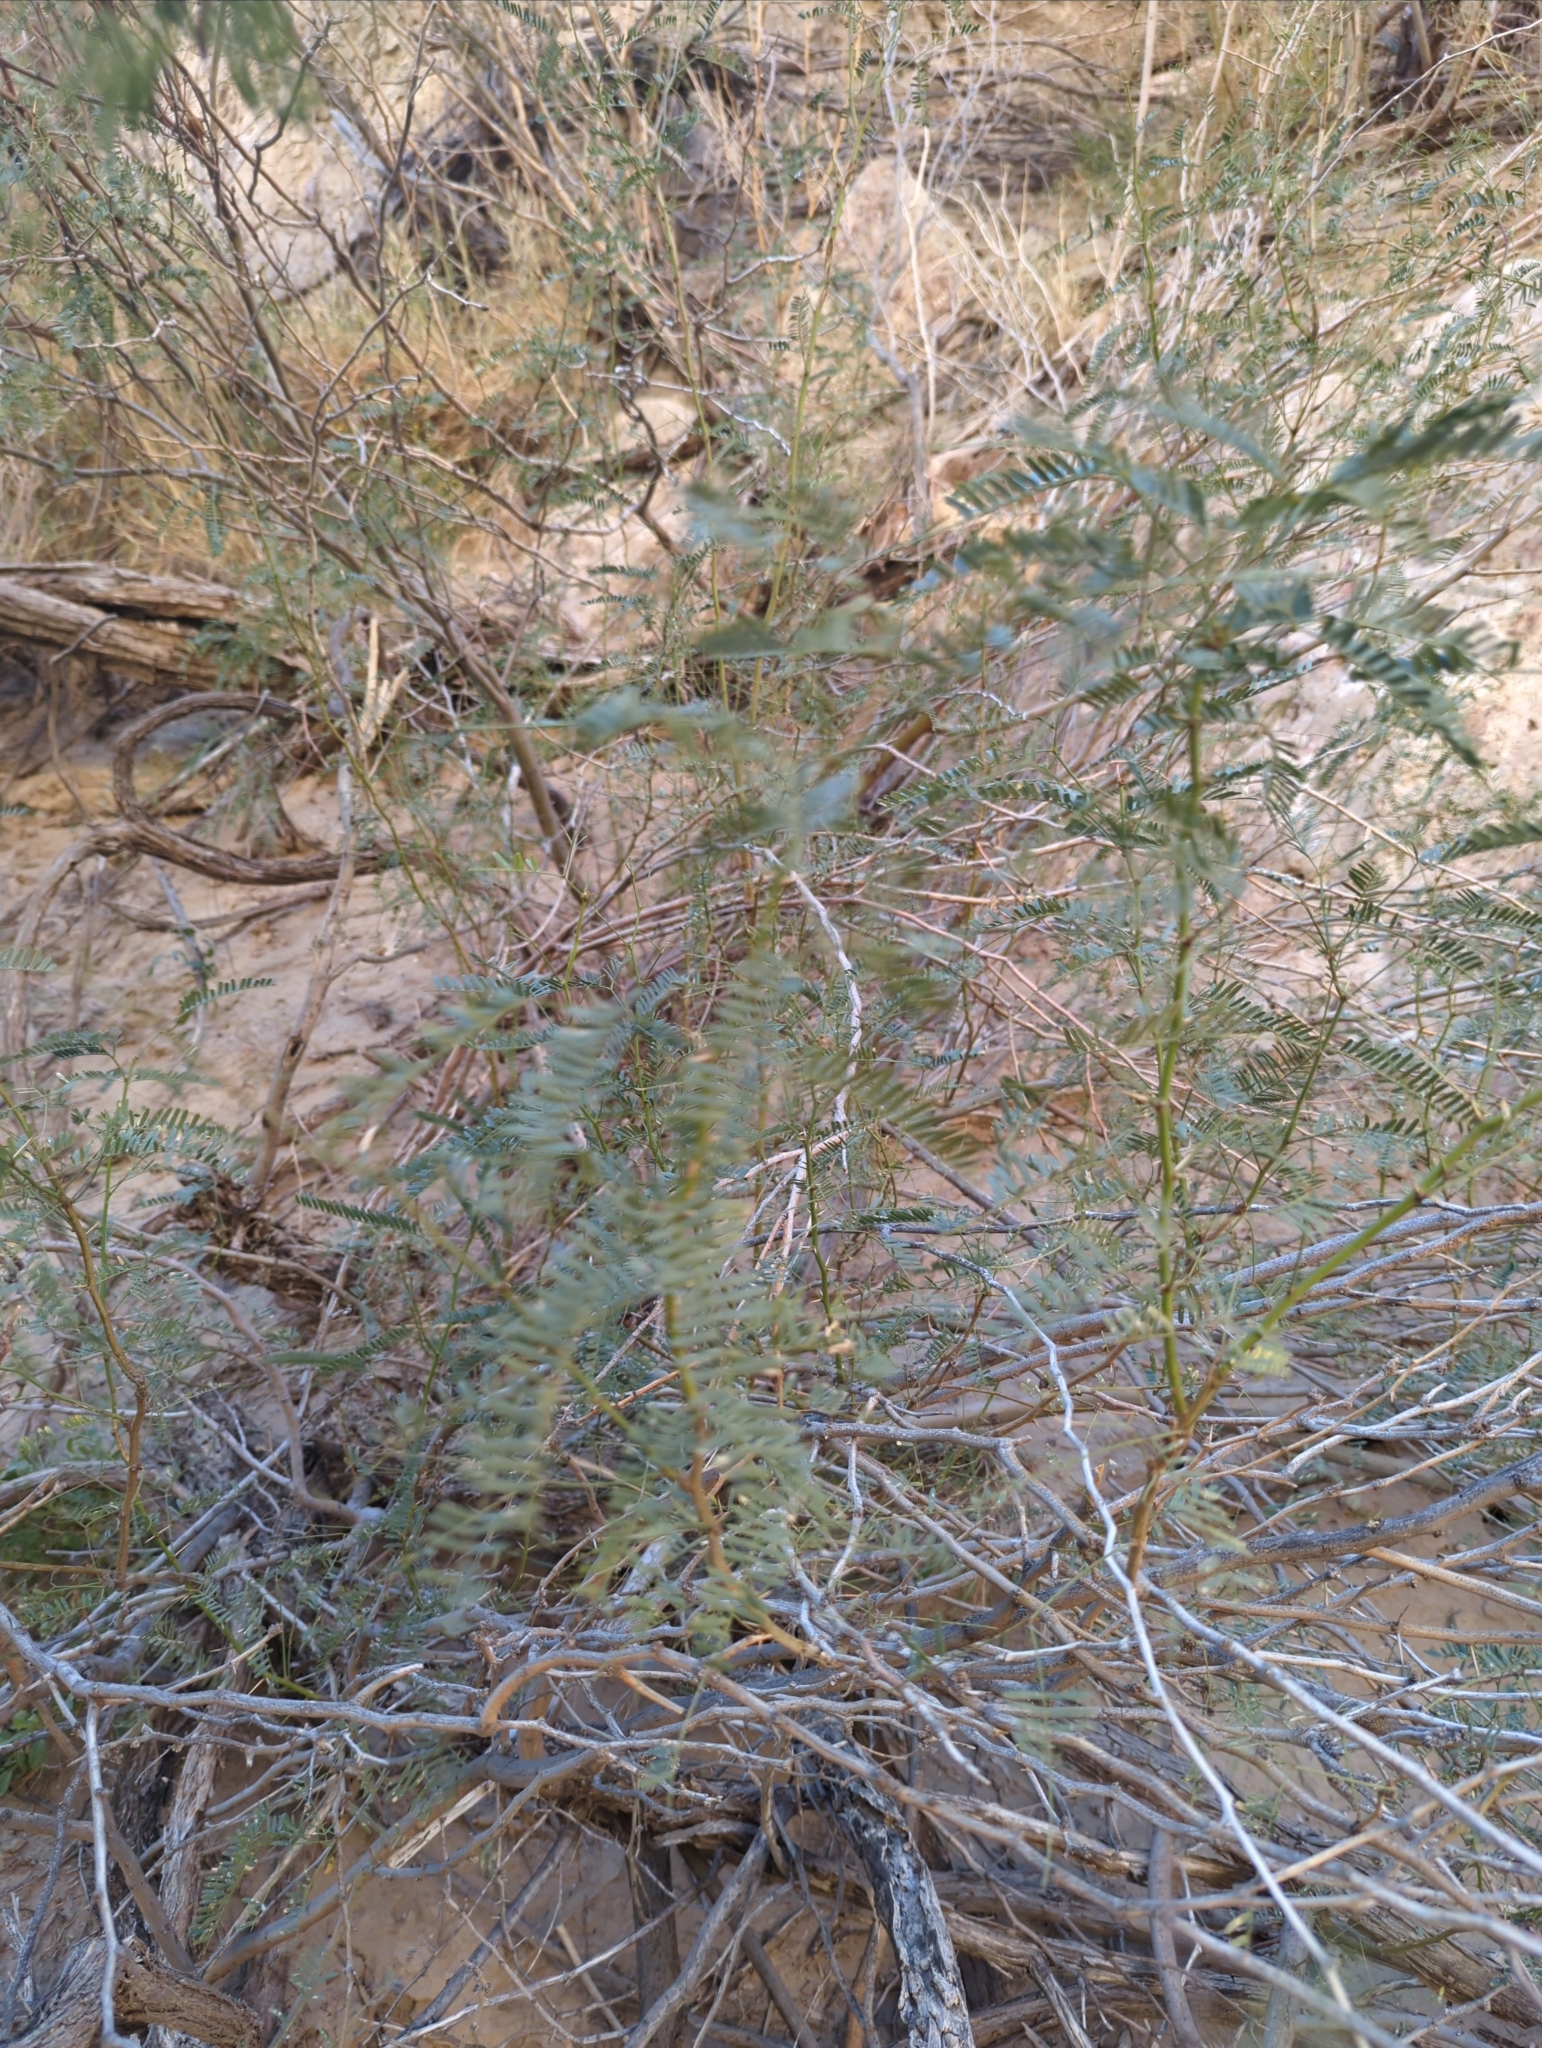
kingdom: Plantae
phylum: Tracheophyta
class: Magnoliopsida
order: Fabales
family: Fabaceae
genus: Prosopis
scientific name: Prosopis glandulosa
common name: Honey mesquite
